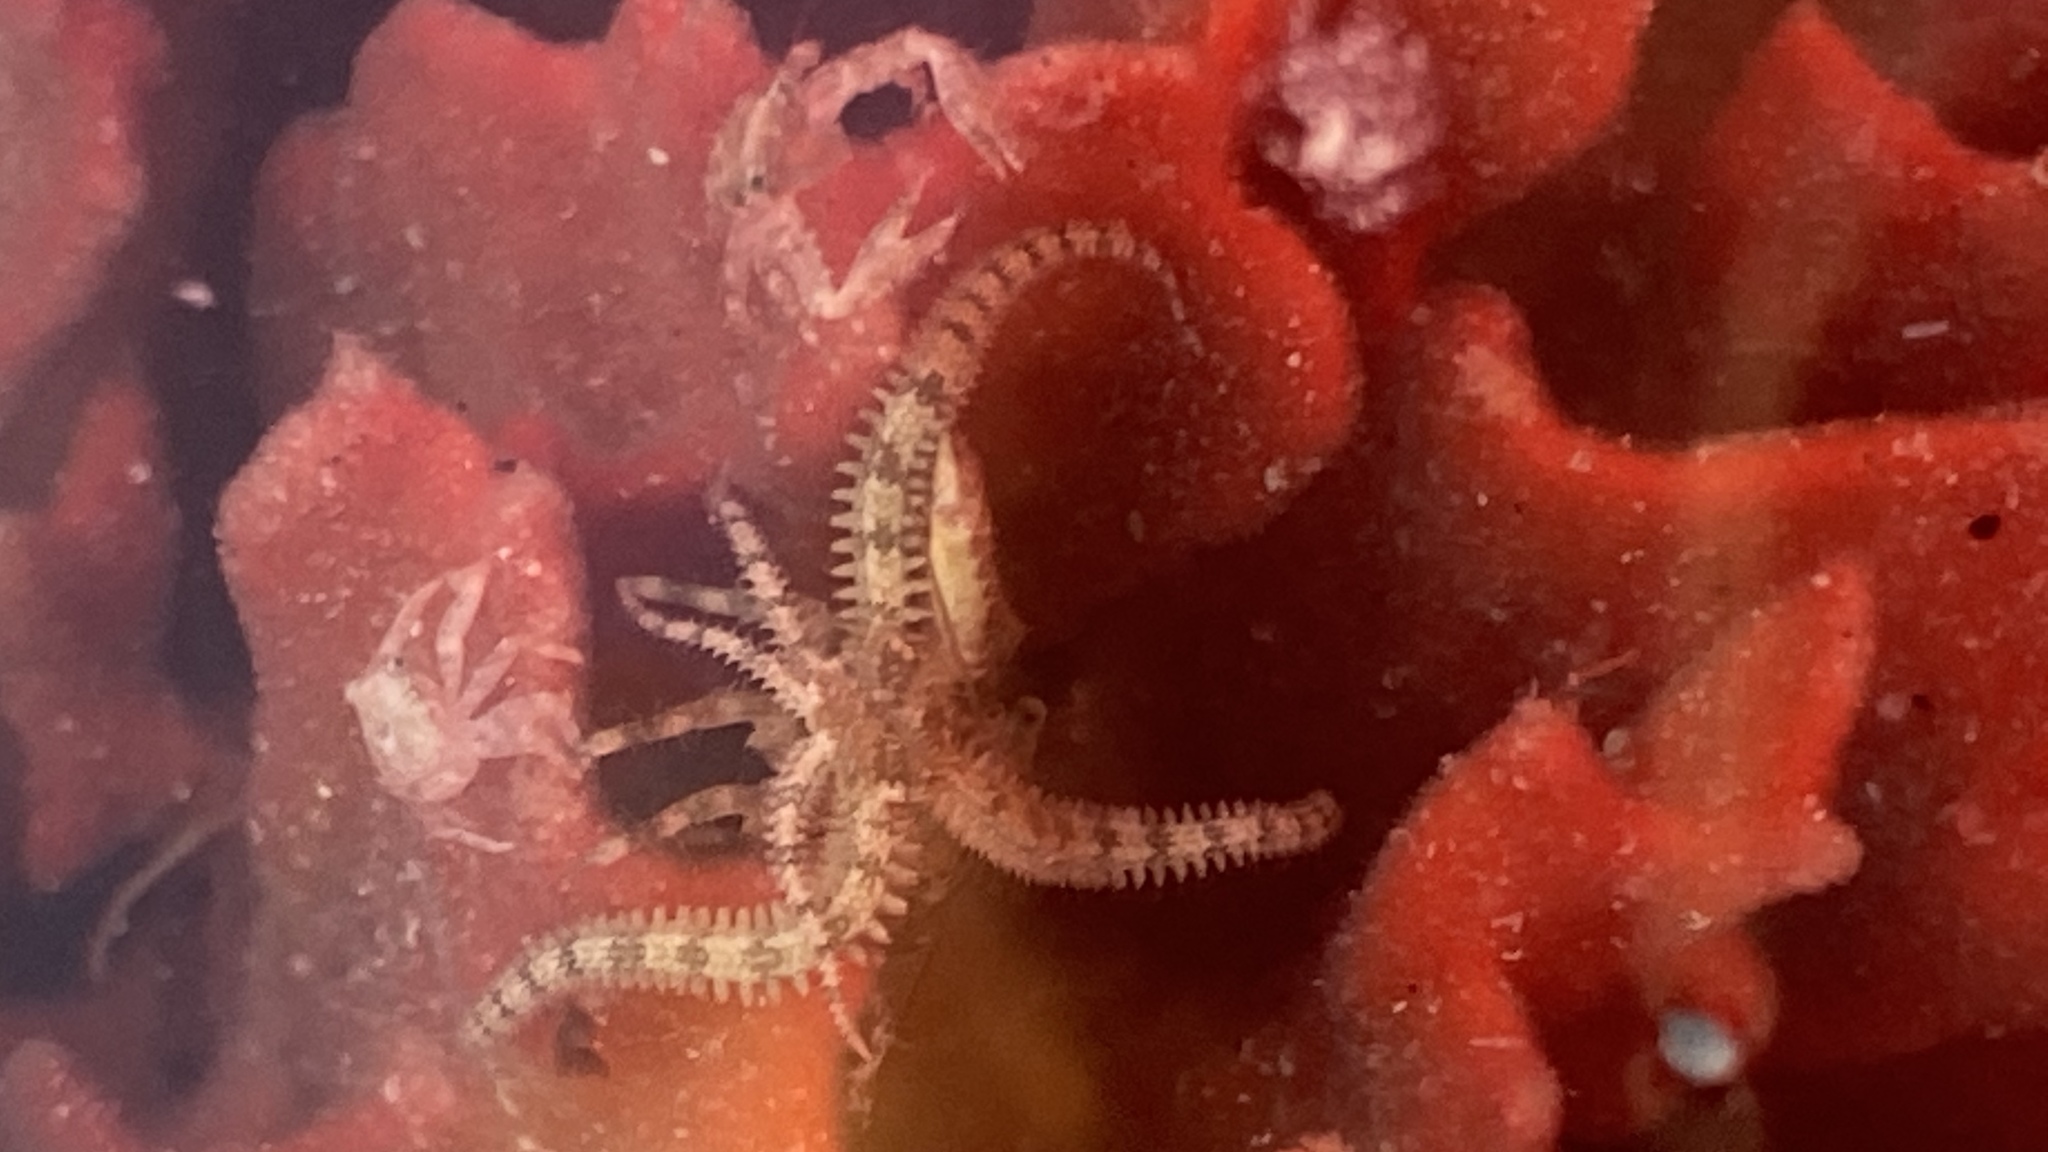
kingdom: Animalia
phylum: Echinodermata
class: Ophiuroidea
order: Amphilepidida
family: Ophiactidae
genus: Ophiactis
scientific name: Ophiactis savignyi
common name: Savigny's brittle star
